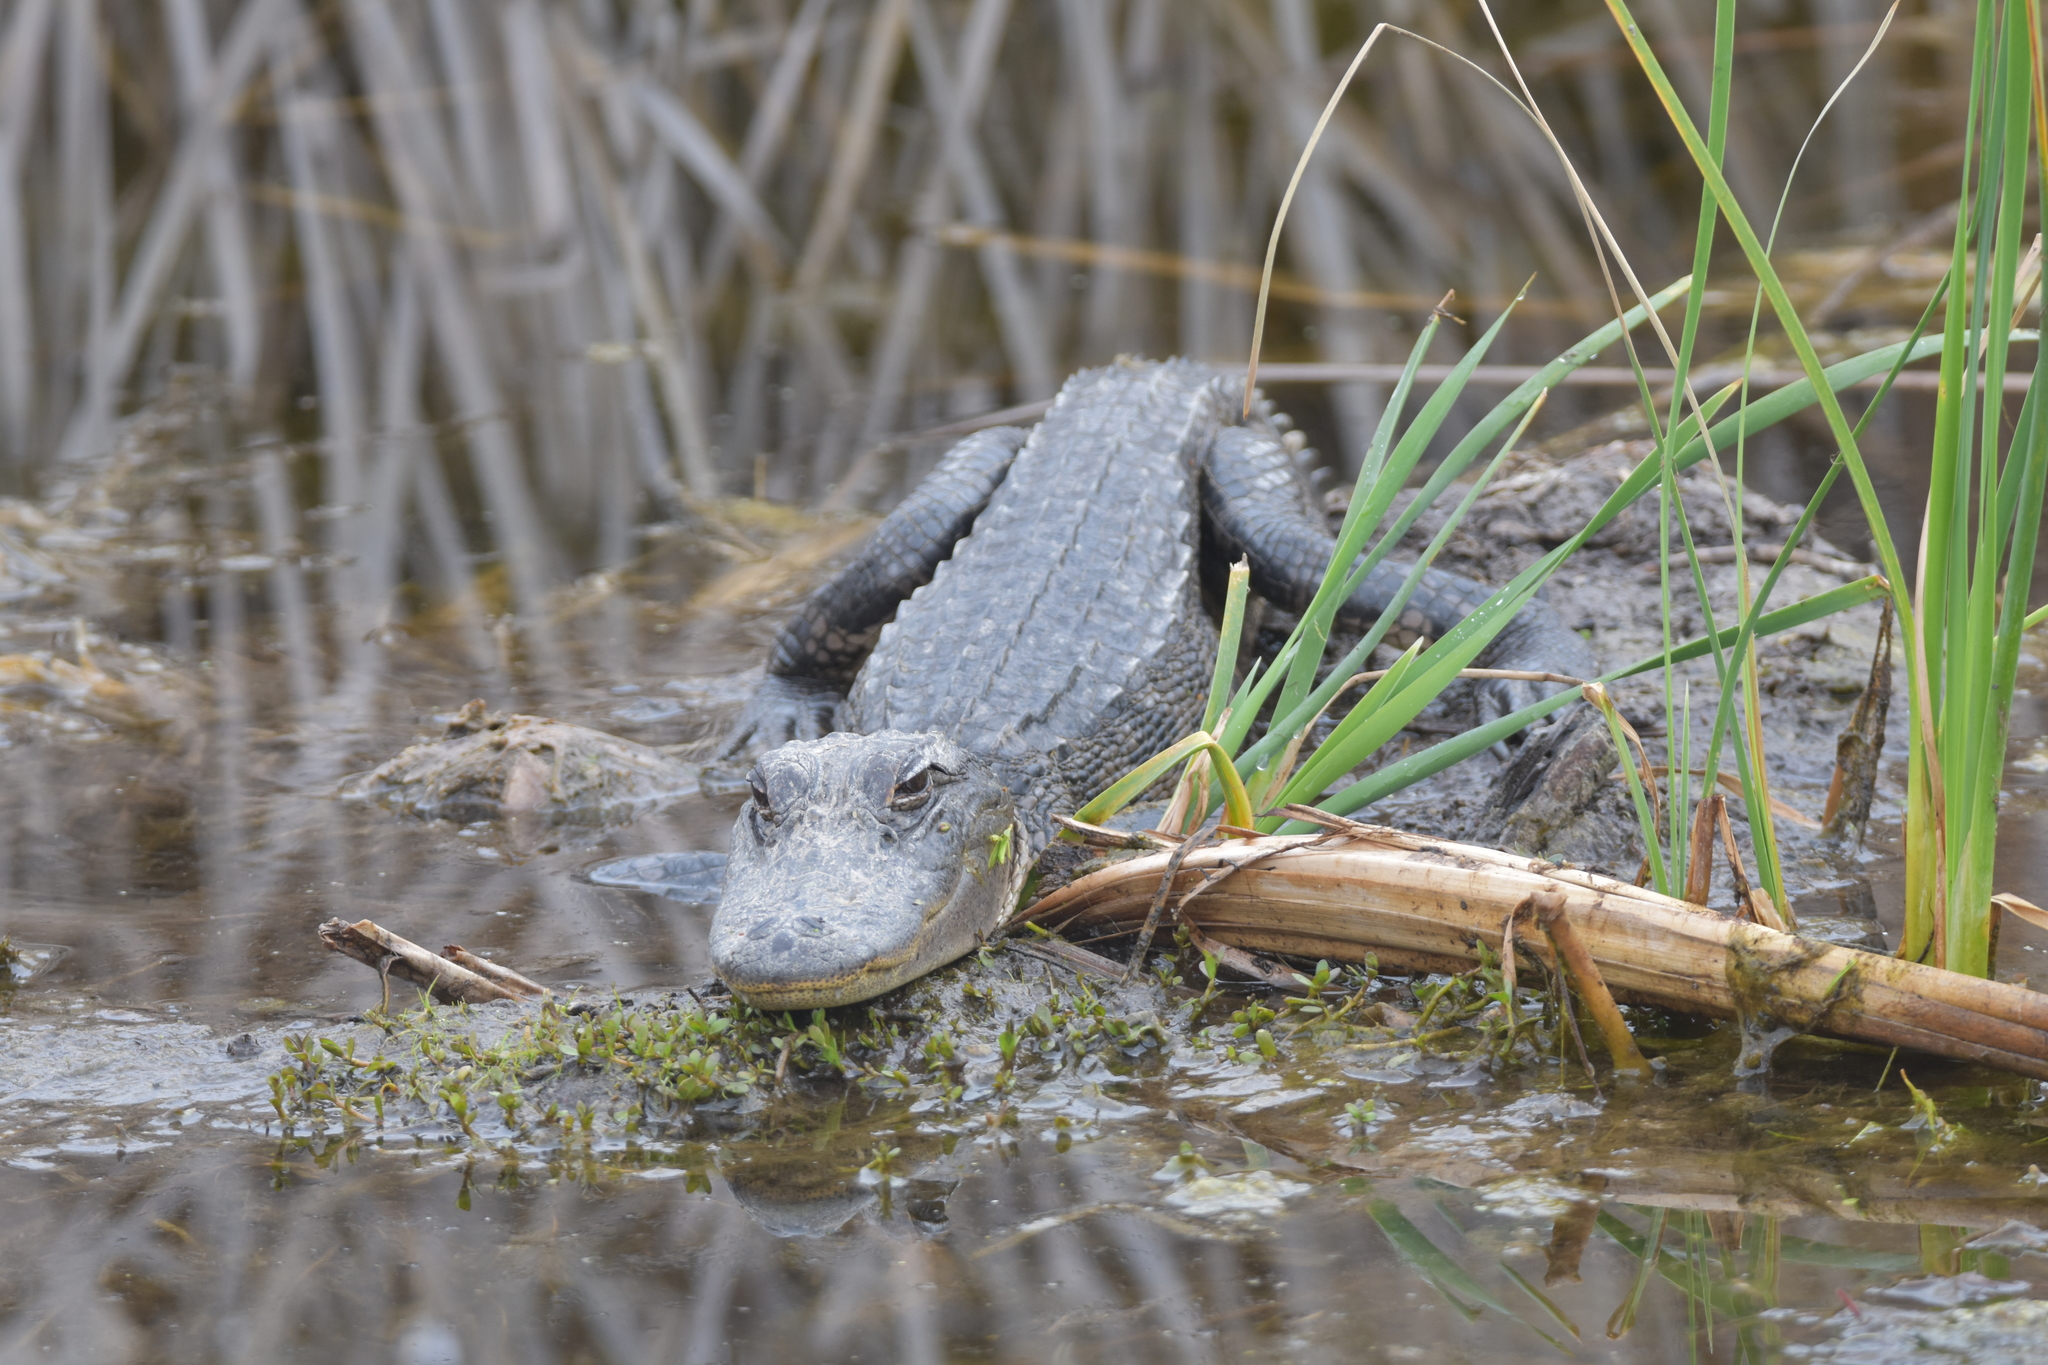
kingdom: Animalia
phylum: Chordata
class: Crocodylia
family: Alligatoridae
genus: Alligator
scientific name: Alligator mississippiensis
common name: American alligator
